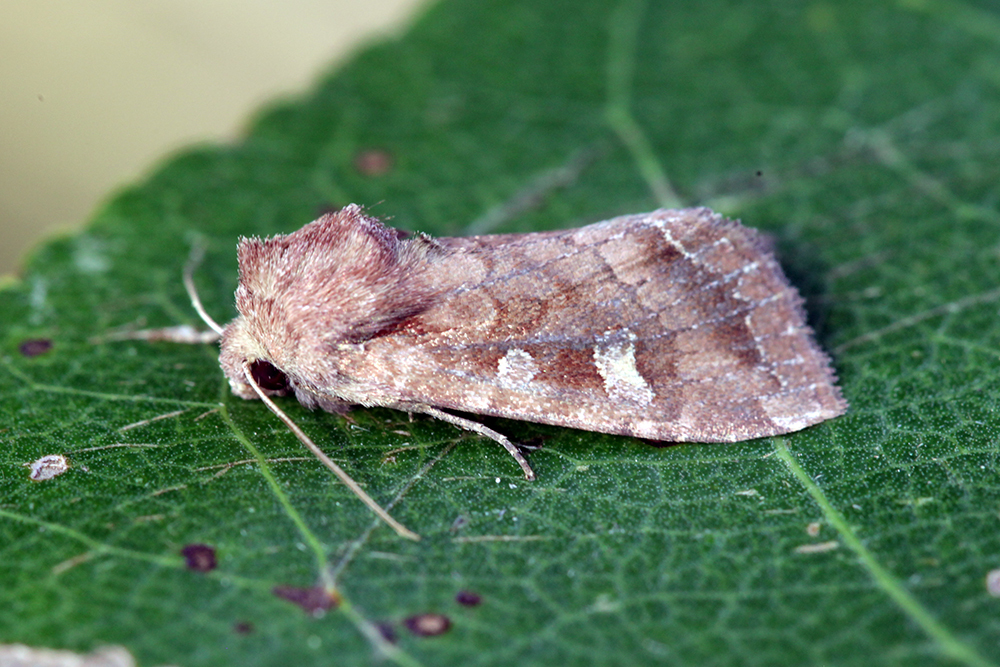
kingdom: Animalia
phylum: Arthropoda
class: Insecta
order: Lepidoptera
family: Noctuidae
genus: Lacanobia
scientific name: Lacanobia splendens
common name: Splendid brocade
